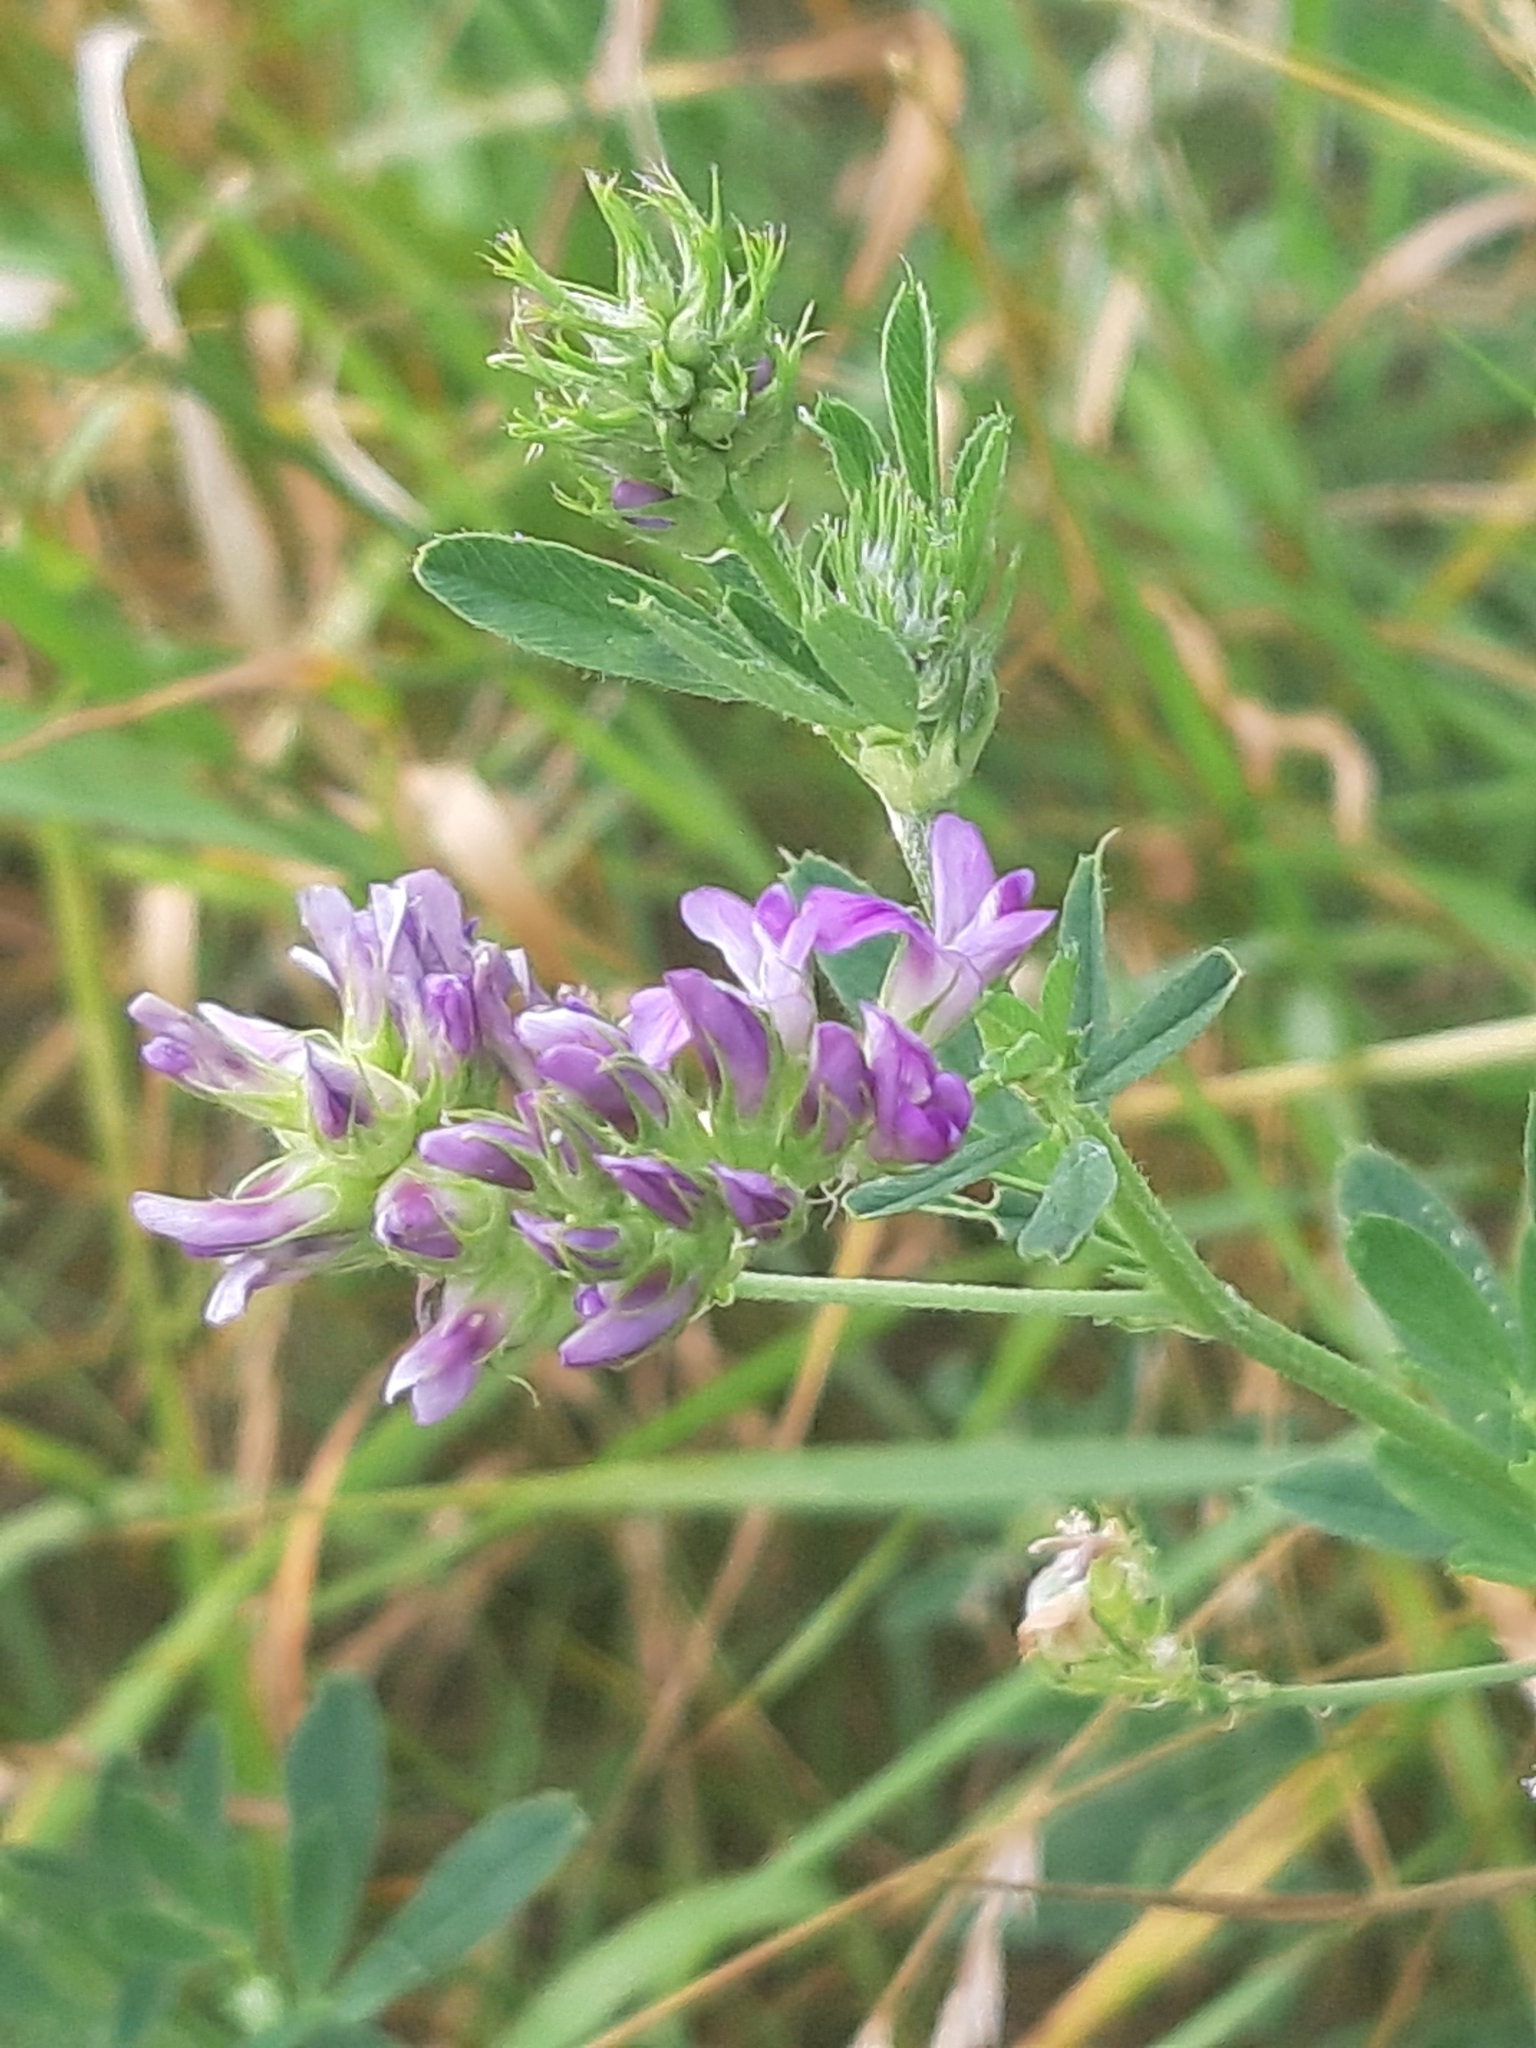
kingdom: Plantae
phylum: Tracheophyta
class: Magnoliopsida
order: Fabales
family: Fabaceae
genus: Medicago
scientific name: Medicago sativa
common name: Alfalfa
